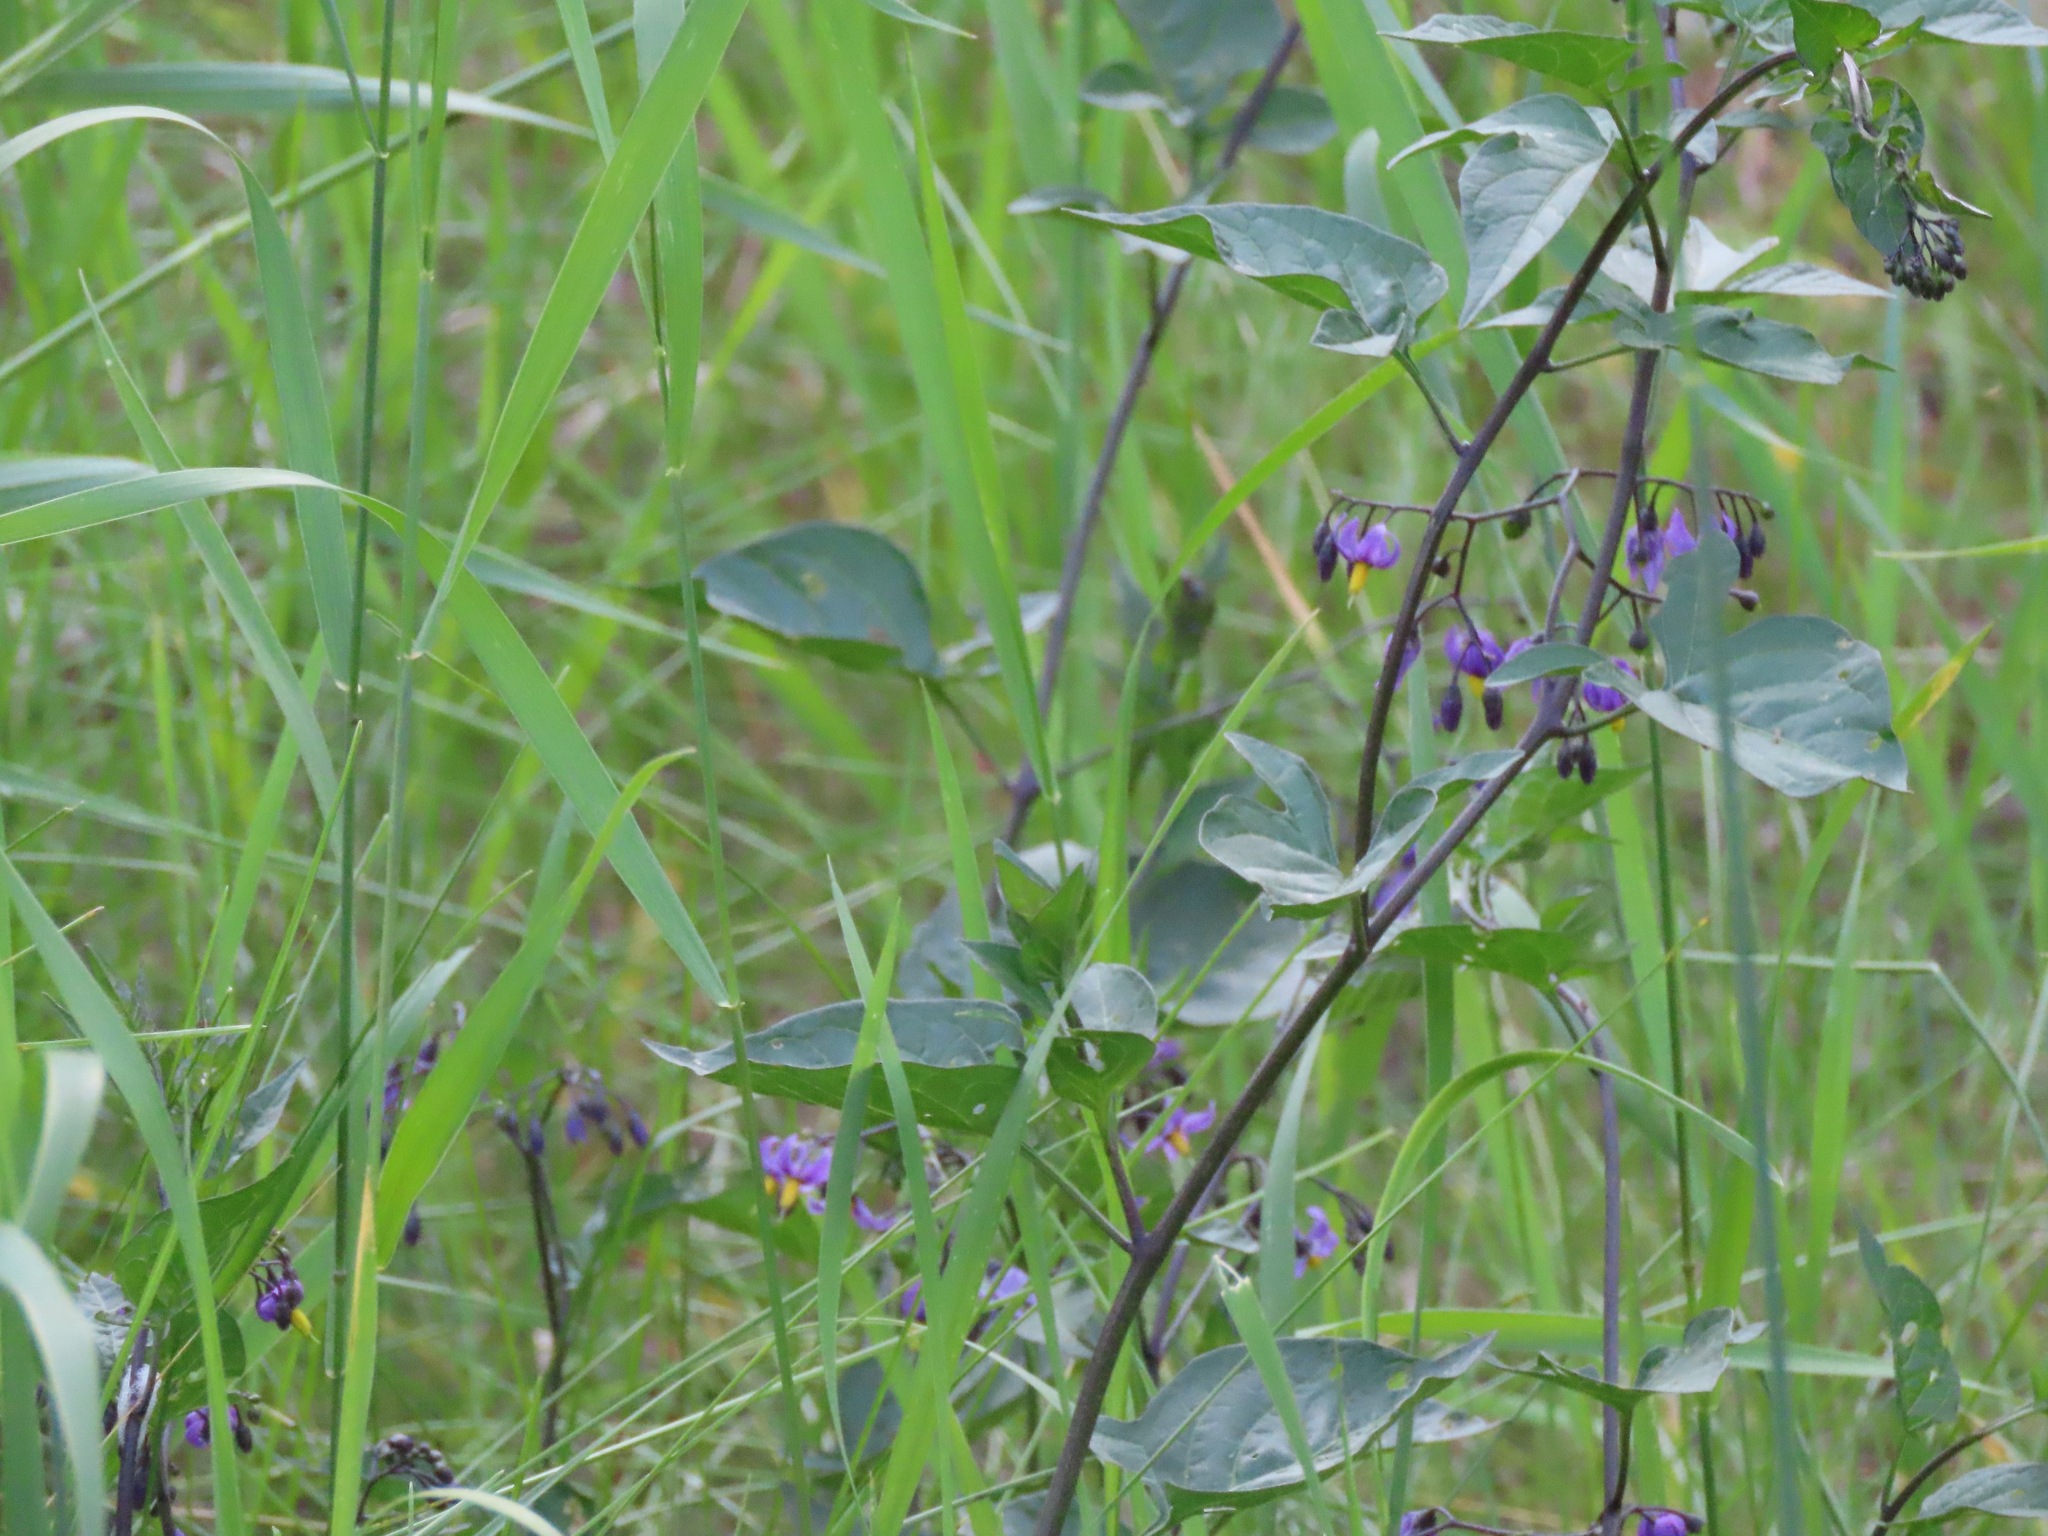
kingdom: Plantae
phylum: Tracheophyta
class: Magnoliopsida
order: Solanales
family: Solanaceae
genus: Solanum
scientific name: Solanum dulcamara
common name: Climbing nightshade
